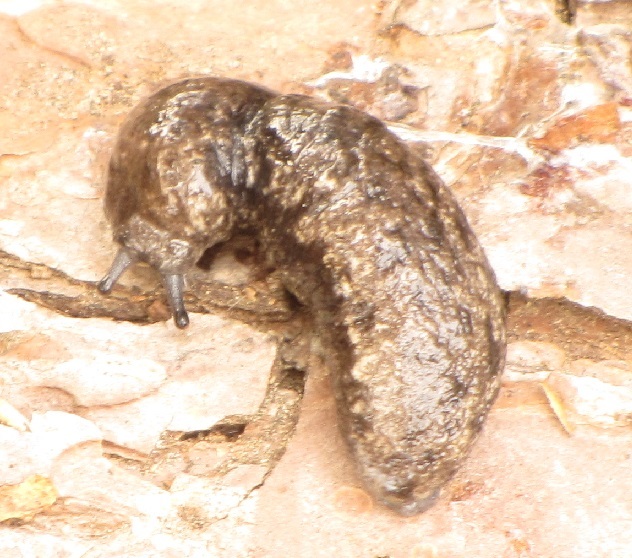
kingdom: Animalia
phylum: Mollusca
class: Gastropoda
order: Stylommatophora
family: Philomycidae
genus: Megapallifera
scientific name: Megapallifera mutabilis
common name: Changeable mantleslug
